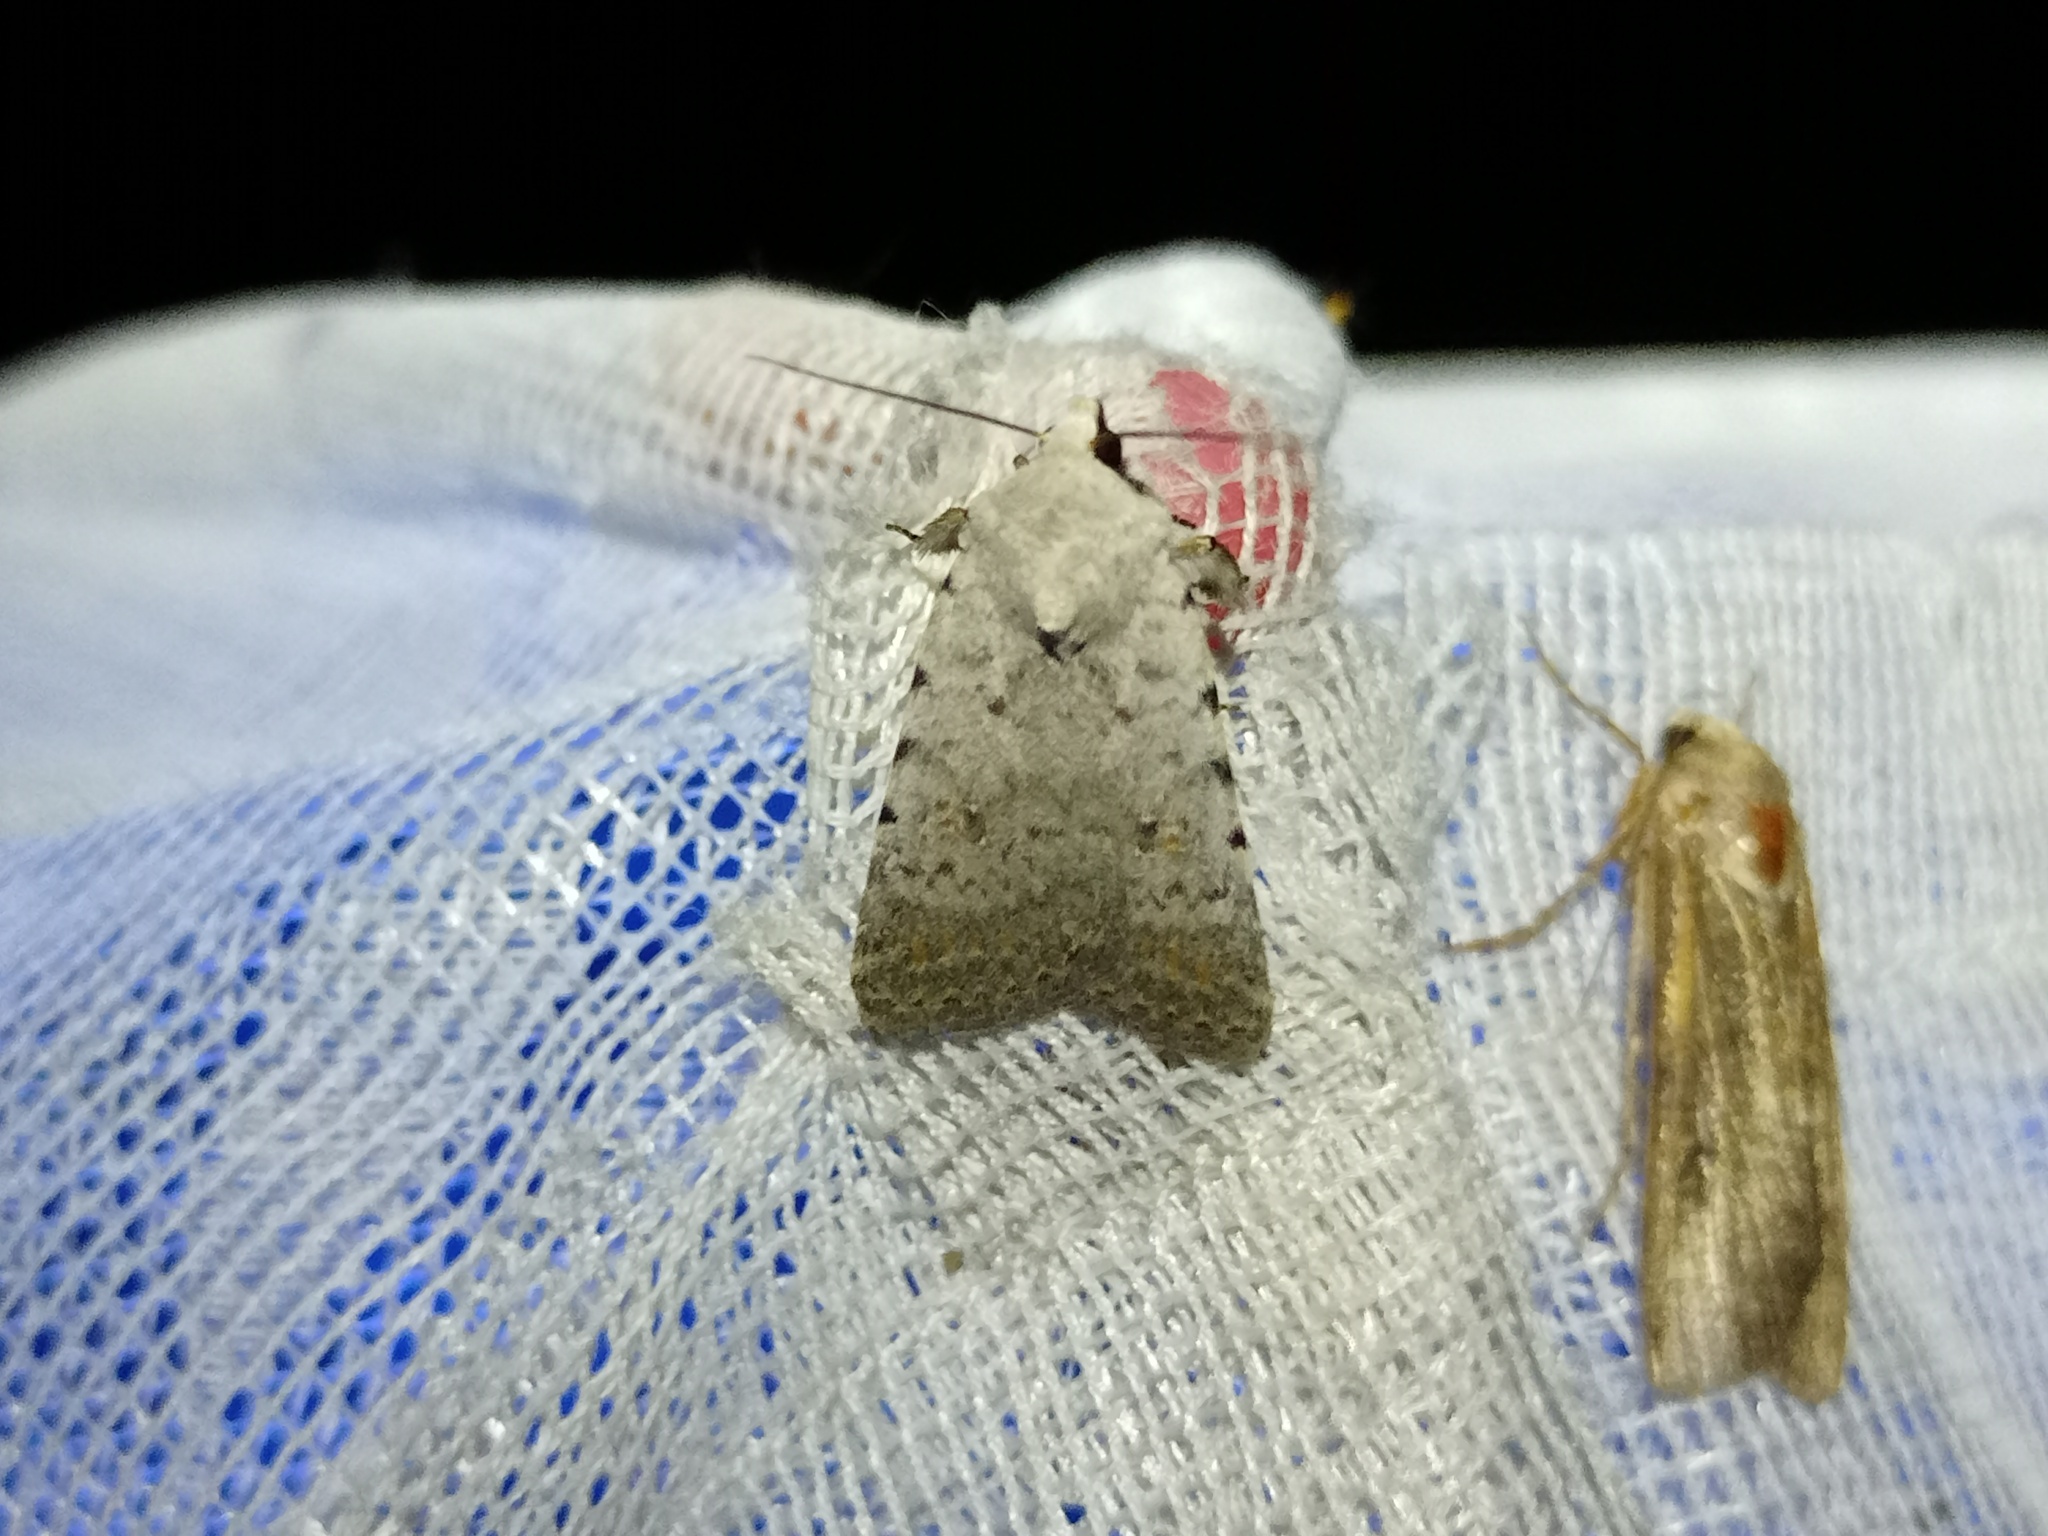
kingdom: Animalia
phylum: Arthropoda
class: Insecta
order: Lepidoptera
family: Noctuidae
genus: Caradrina
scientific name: Caradrina selini
